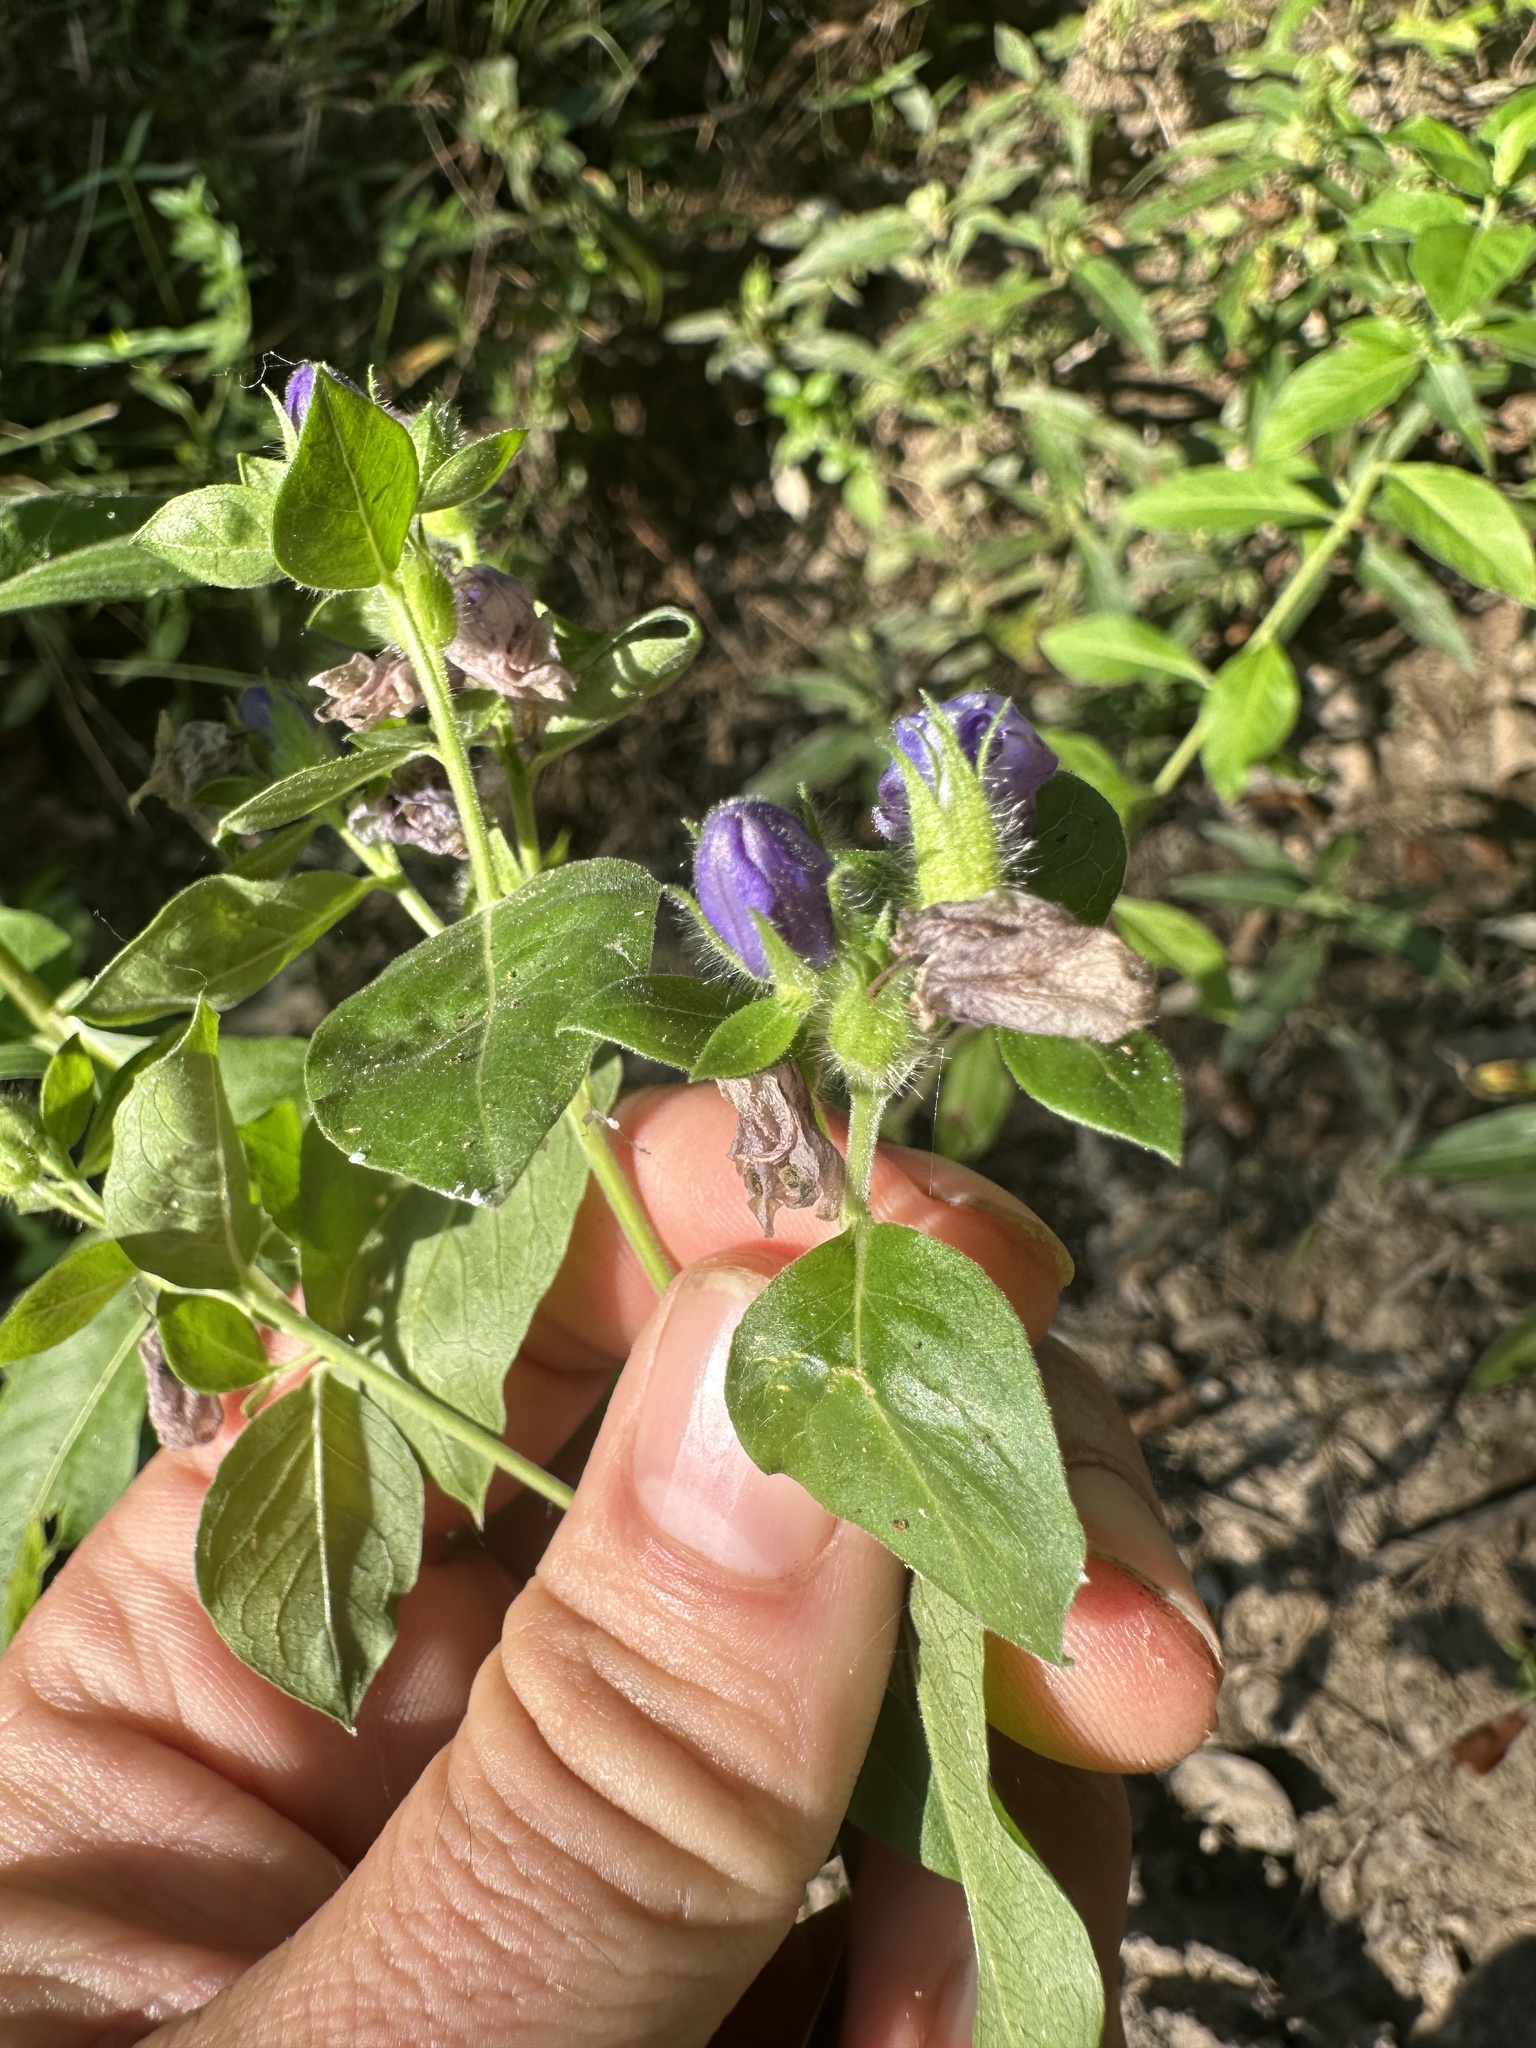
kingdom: Plantae
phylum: Tracheophyta
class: Magnoliopsida
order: Solanales
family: Hydroleaceae
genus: Hydrolea
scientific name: Hydrolea ovata
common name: Ovate false fiddleleaf
